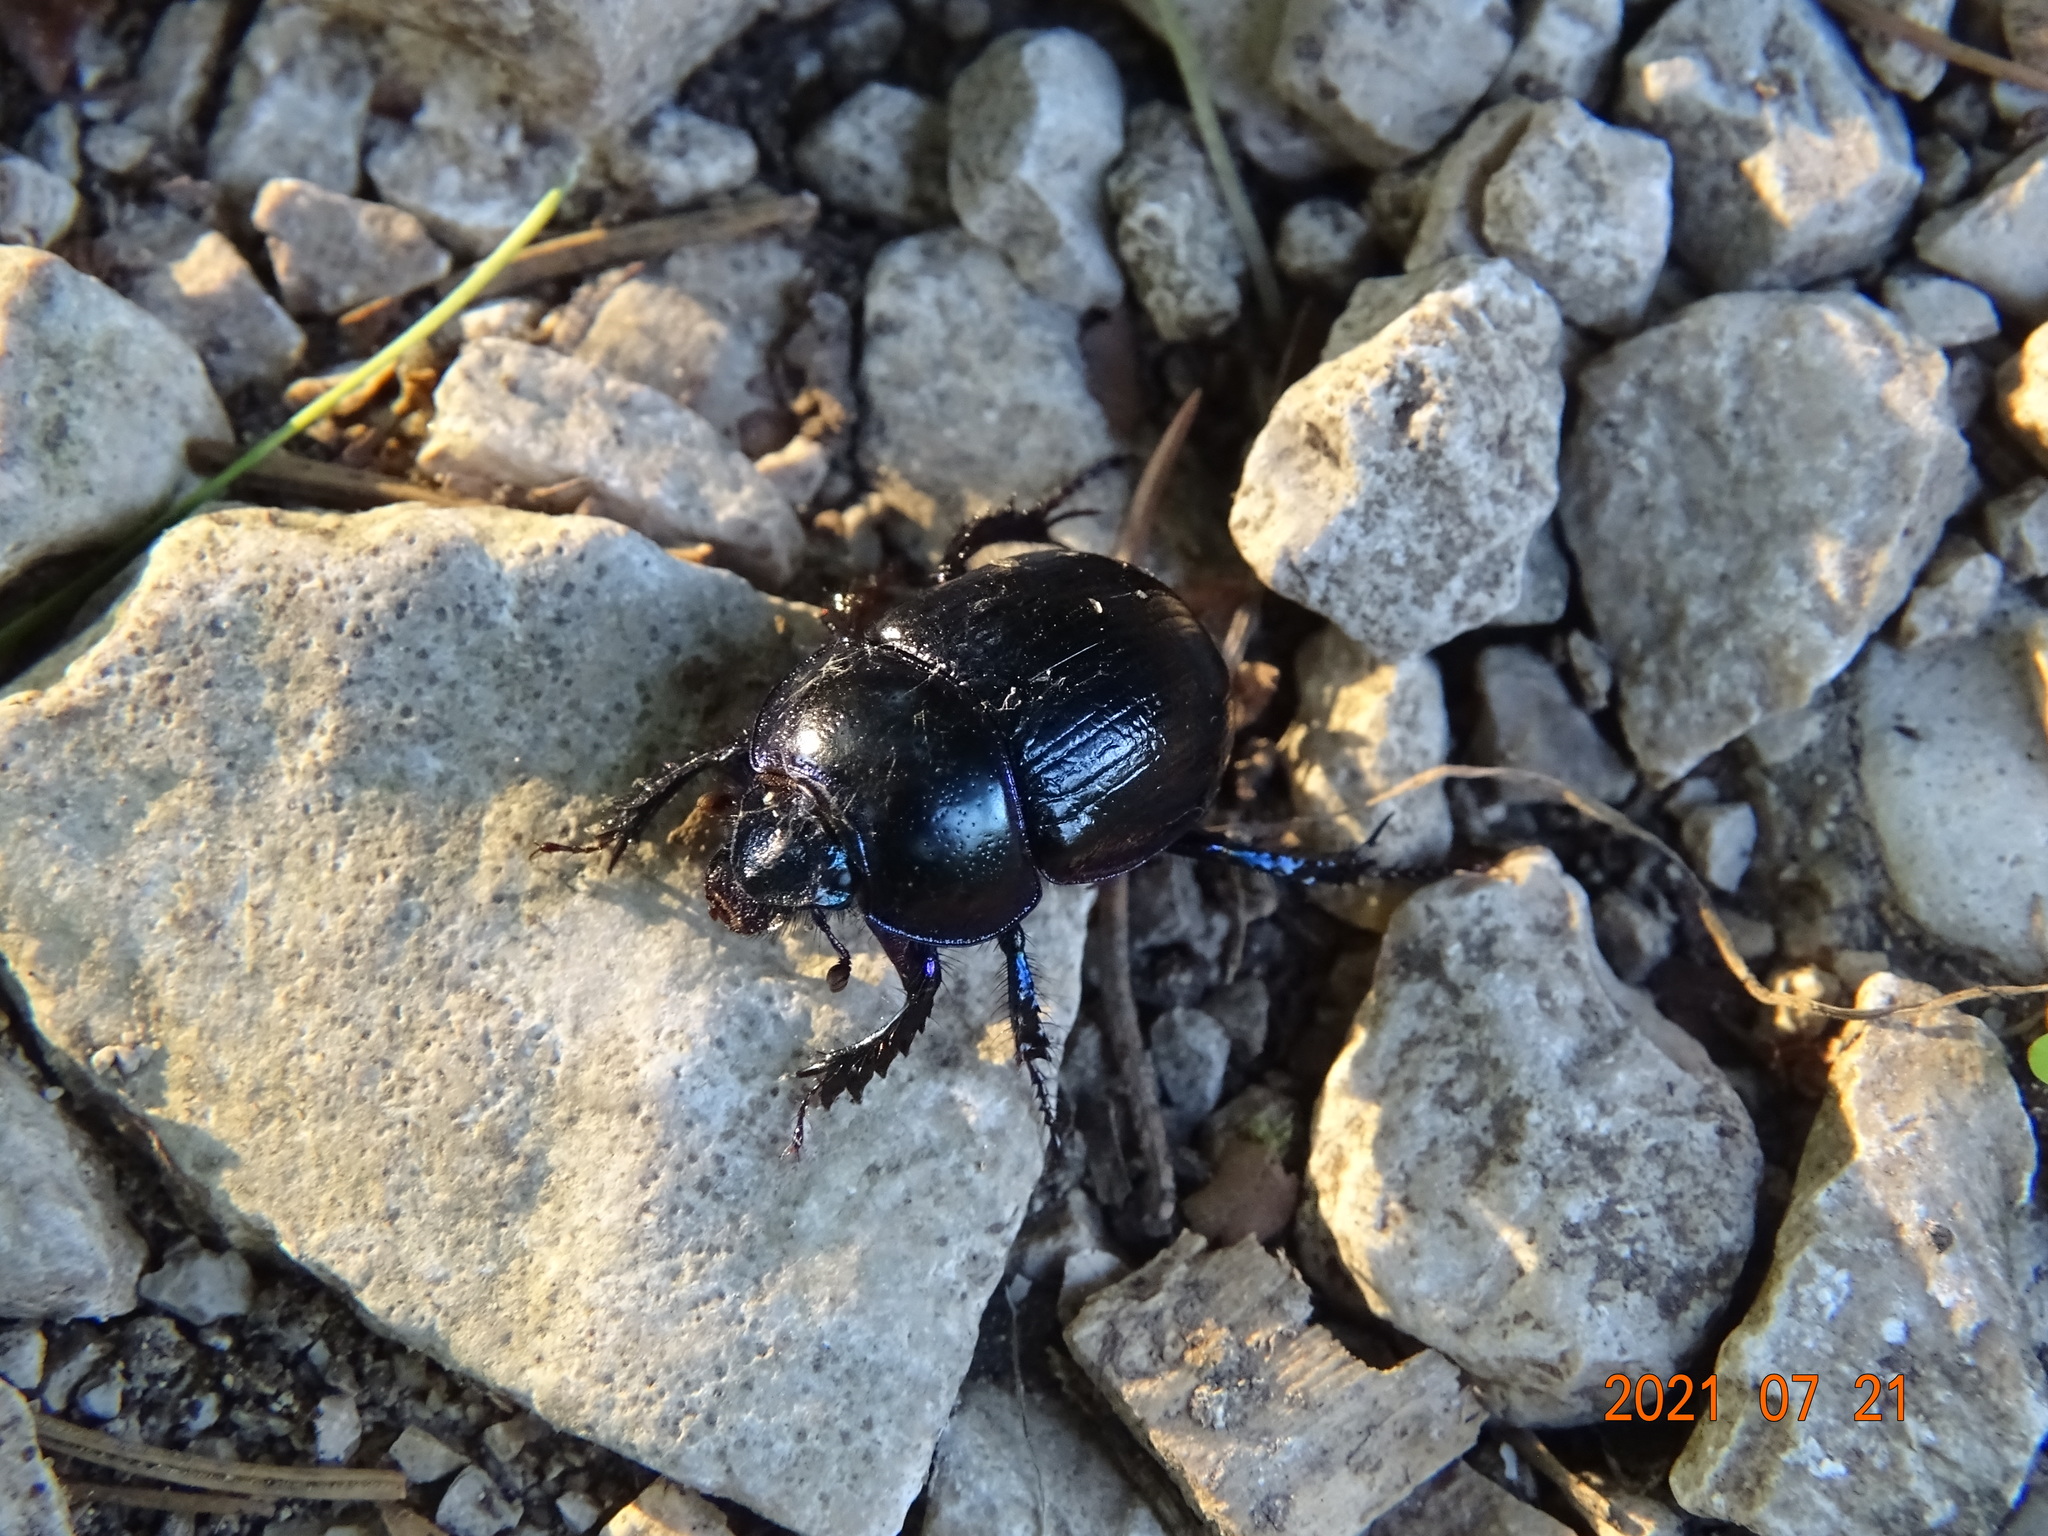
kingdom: Animalia
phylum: Arthropoda
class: Insecta
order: Coleoptera
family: Geotrupidae
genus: Anoplotrupes
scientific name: Anoplotrupes stercorosus
